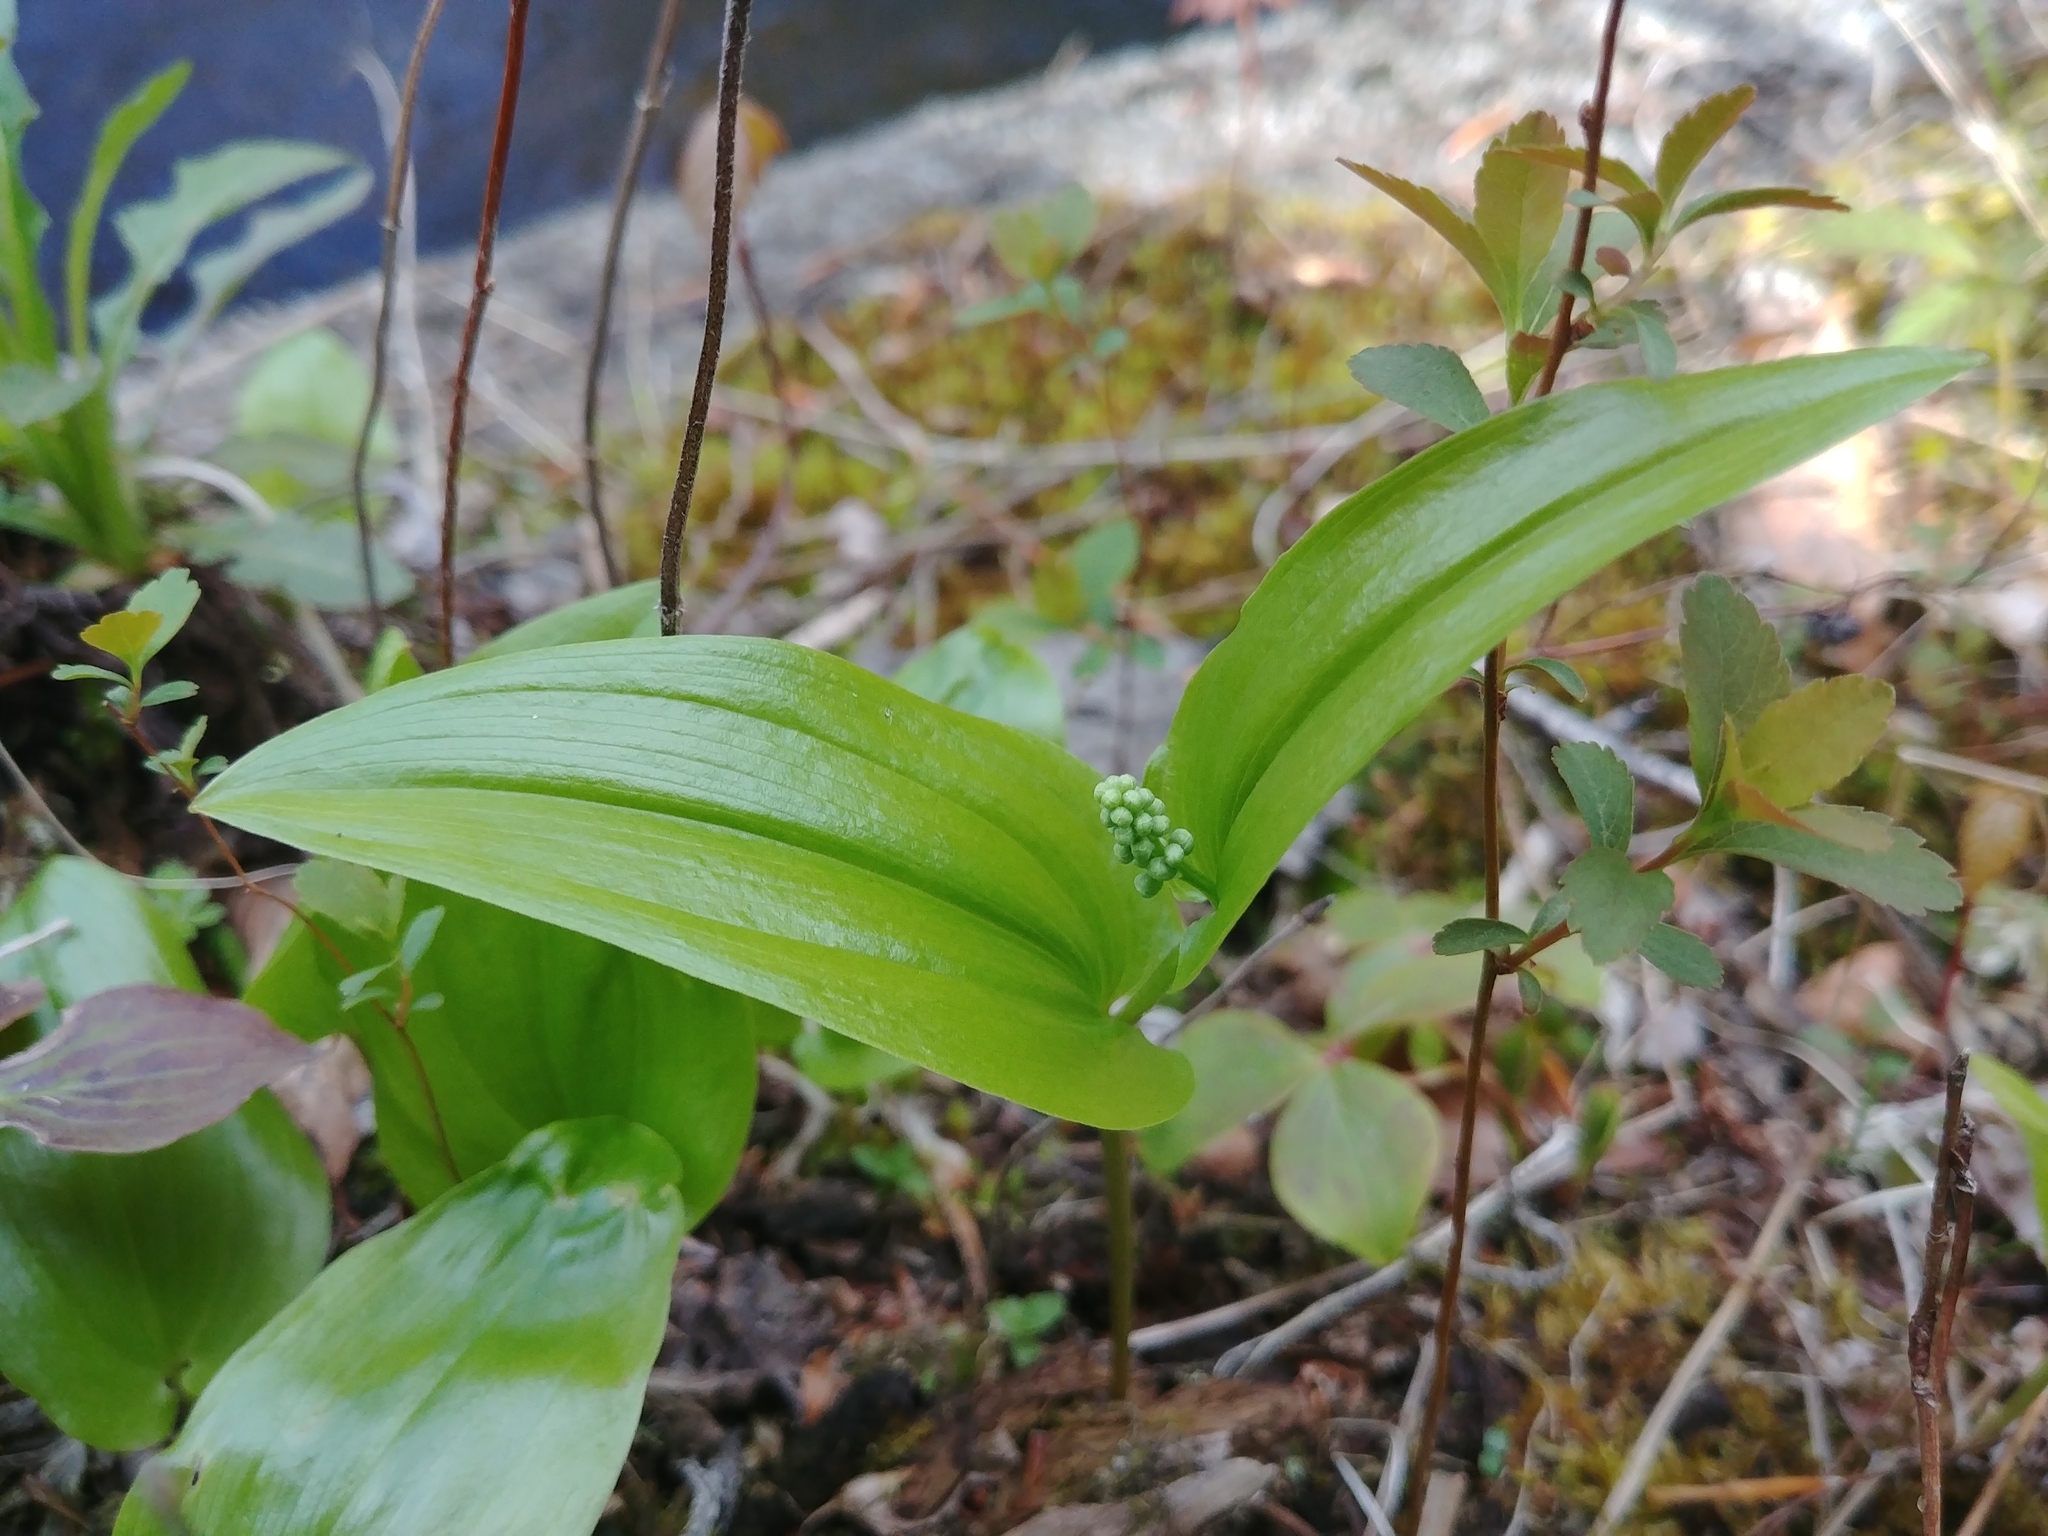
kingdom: Plantae
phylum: Tracheophyta
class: Liliopsida
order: Asparagales
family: Asparagaceae
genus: Maianthemum
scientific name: Maianthemum canadense
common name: False lily-of-the-valley
